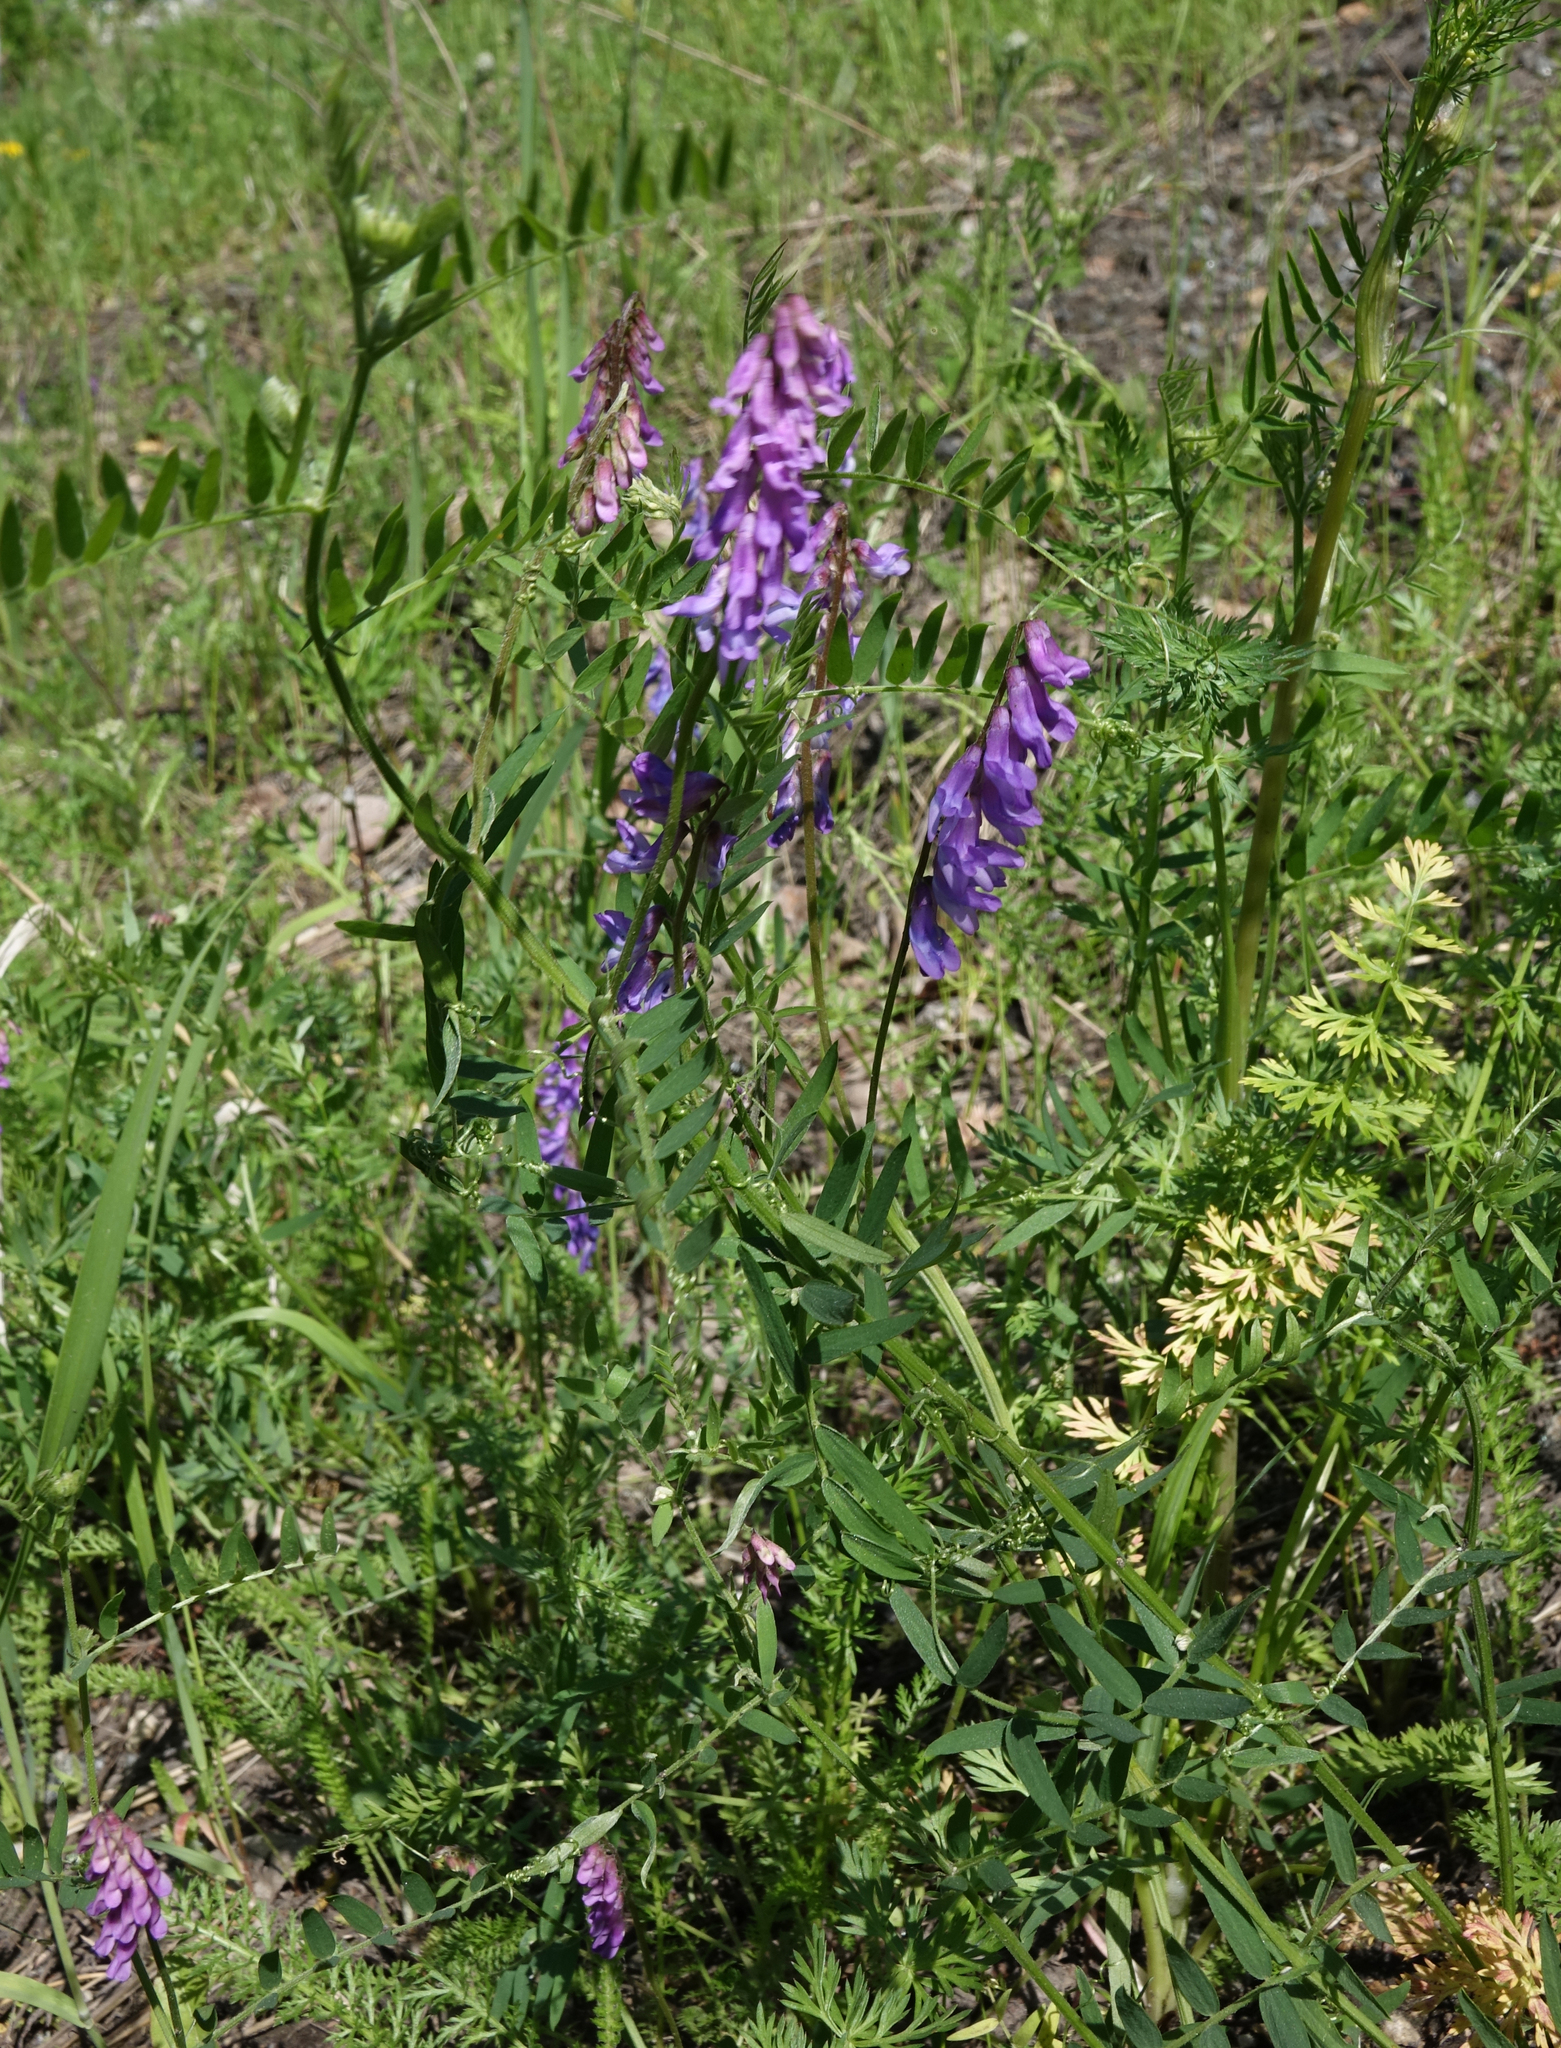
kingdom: Plantae
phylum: Tracheophyta
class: Magnoliopsida
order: Fabales
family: Fabaceae
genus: Vicia
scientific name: Vicia cracca
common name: Bird vetch
